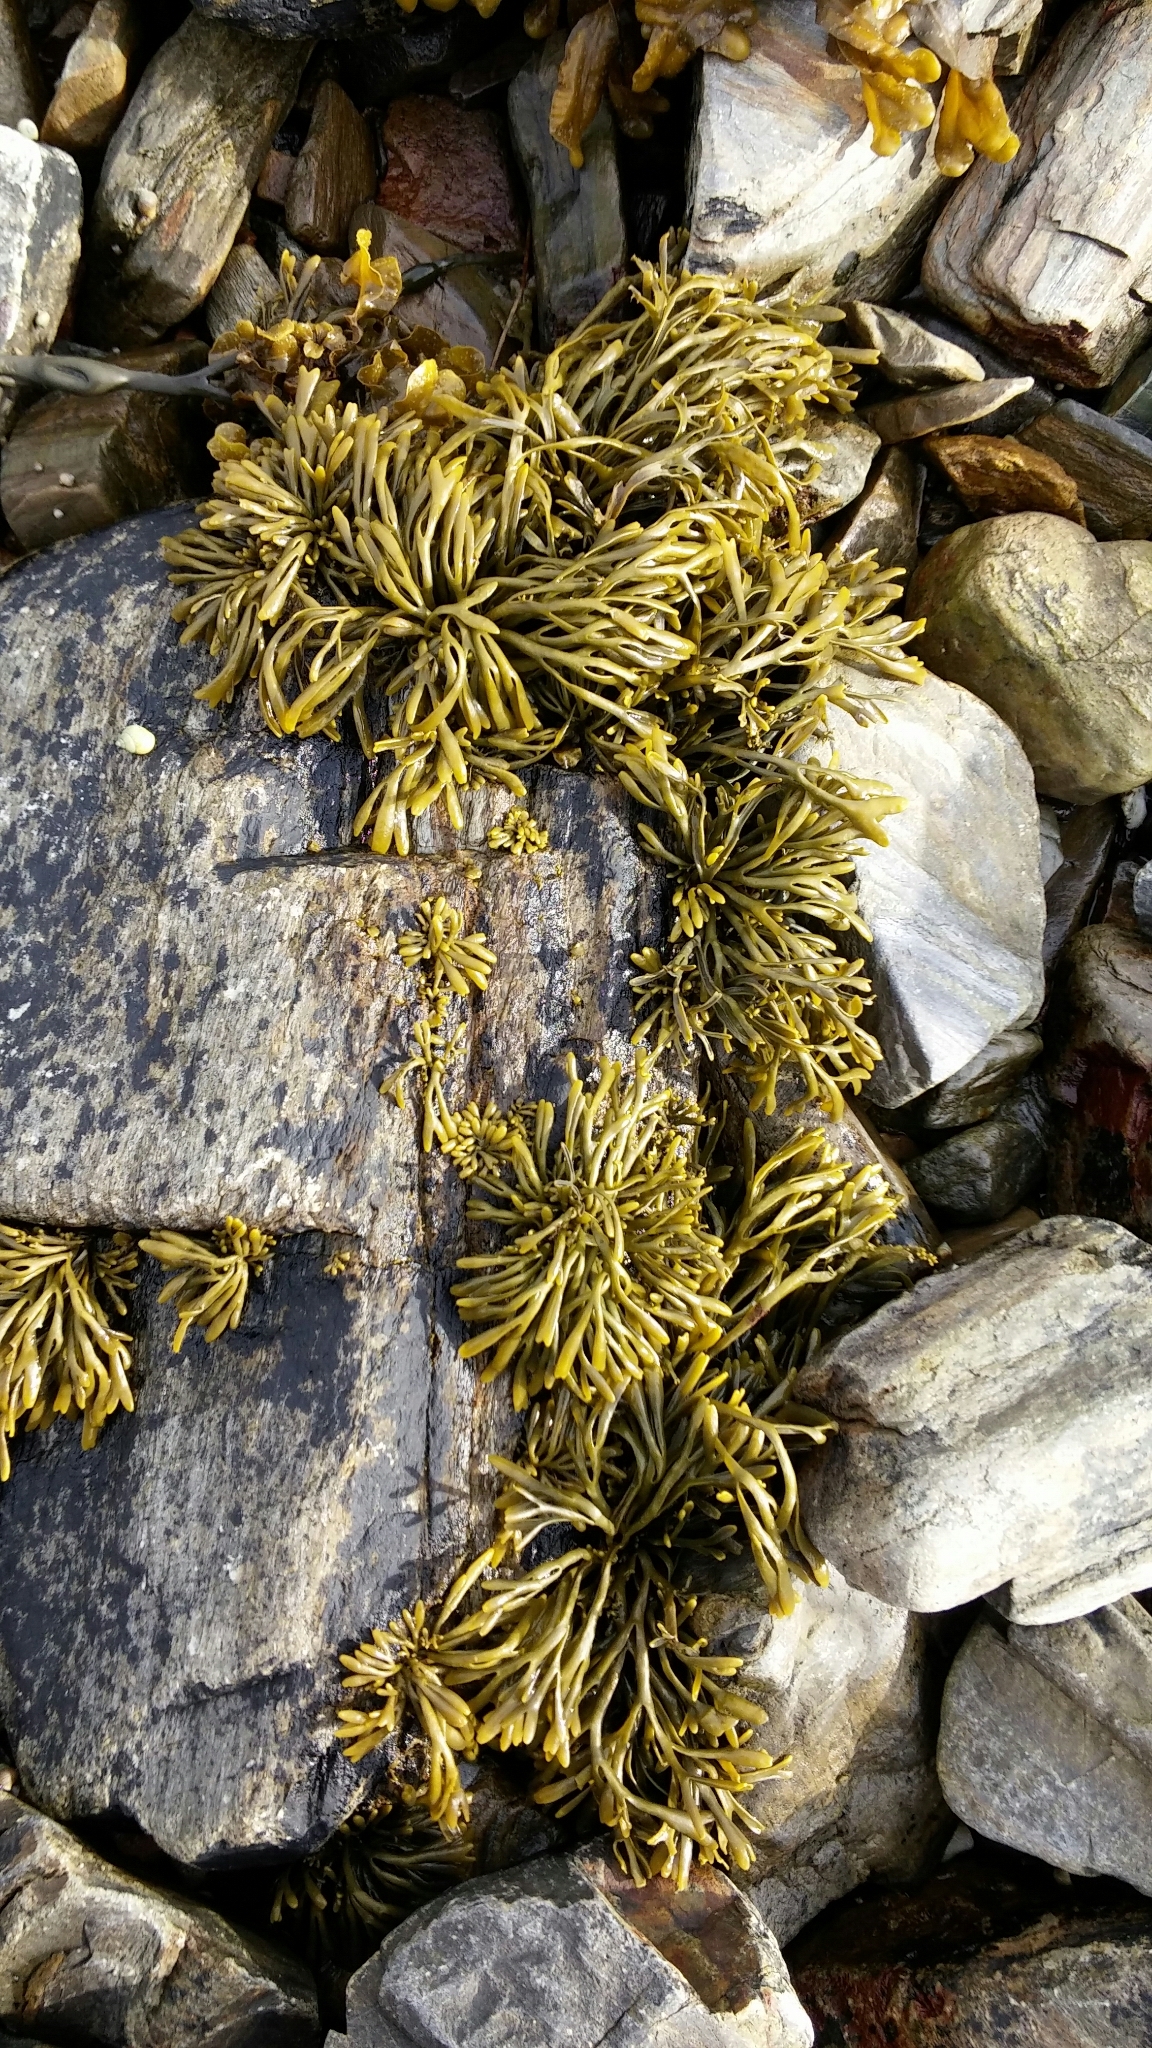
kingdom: Chromista
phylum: Ochrophyta
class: Phaeophyceae
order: Fucales
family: Fucaceae
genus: Pelvetia
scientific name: Pelvetia canaliculata
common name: Channelled wrack
